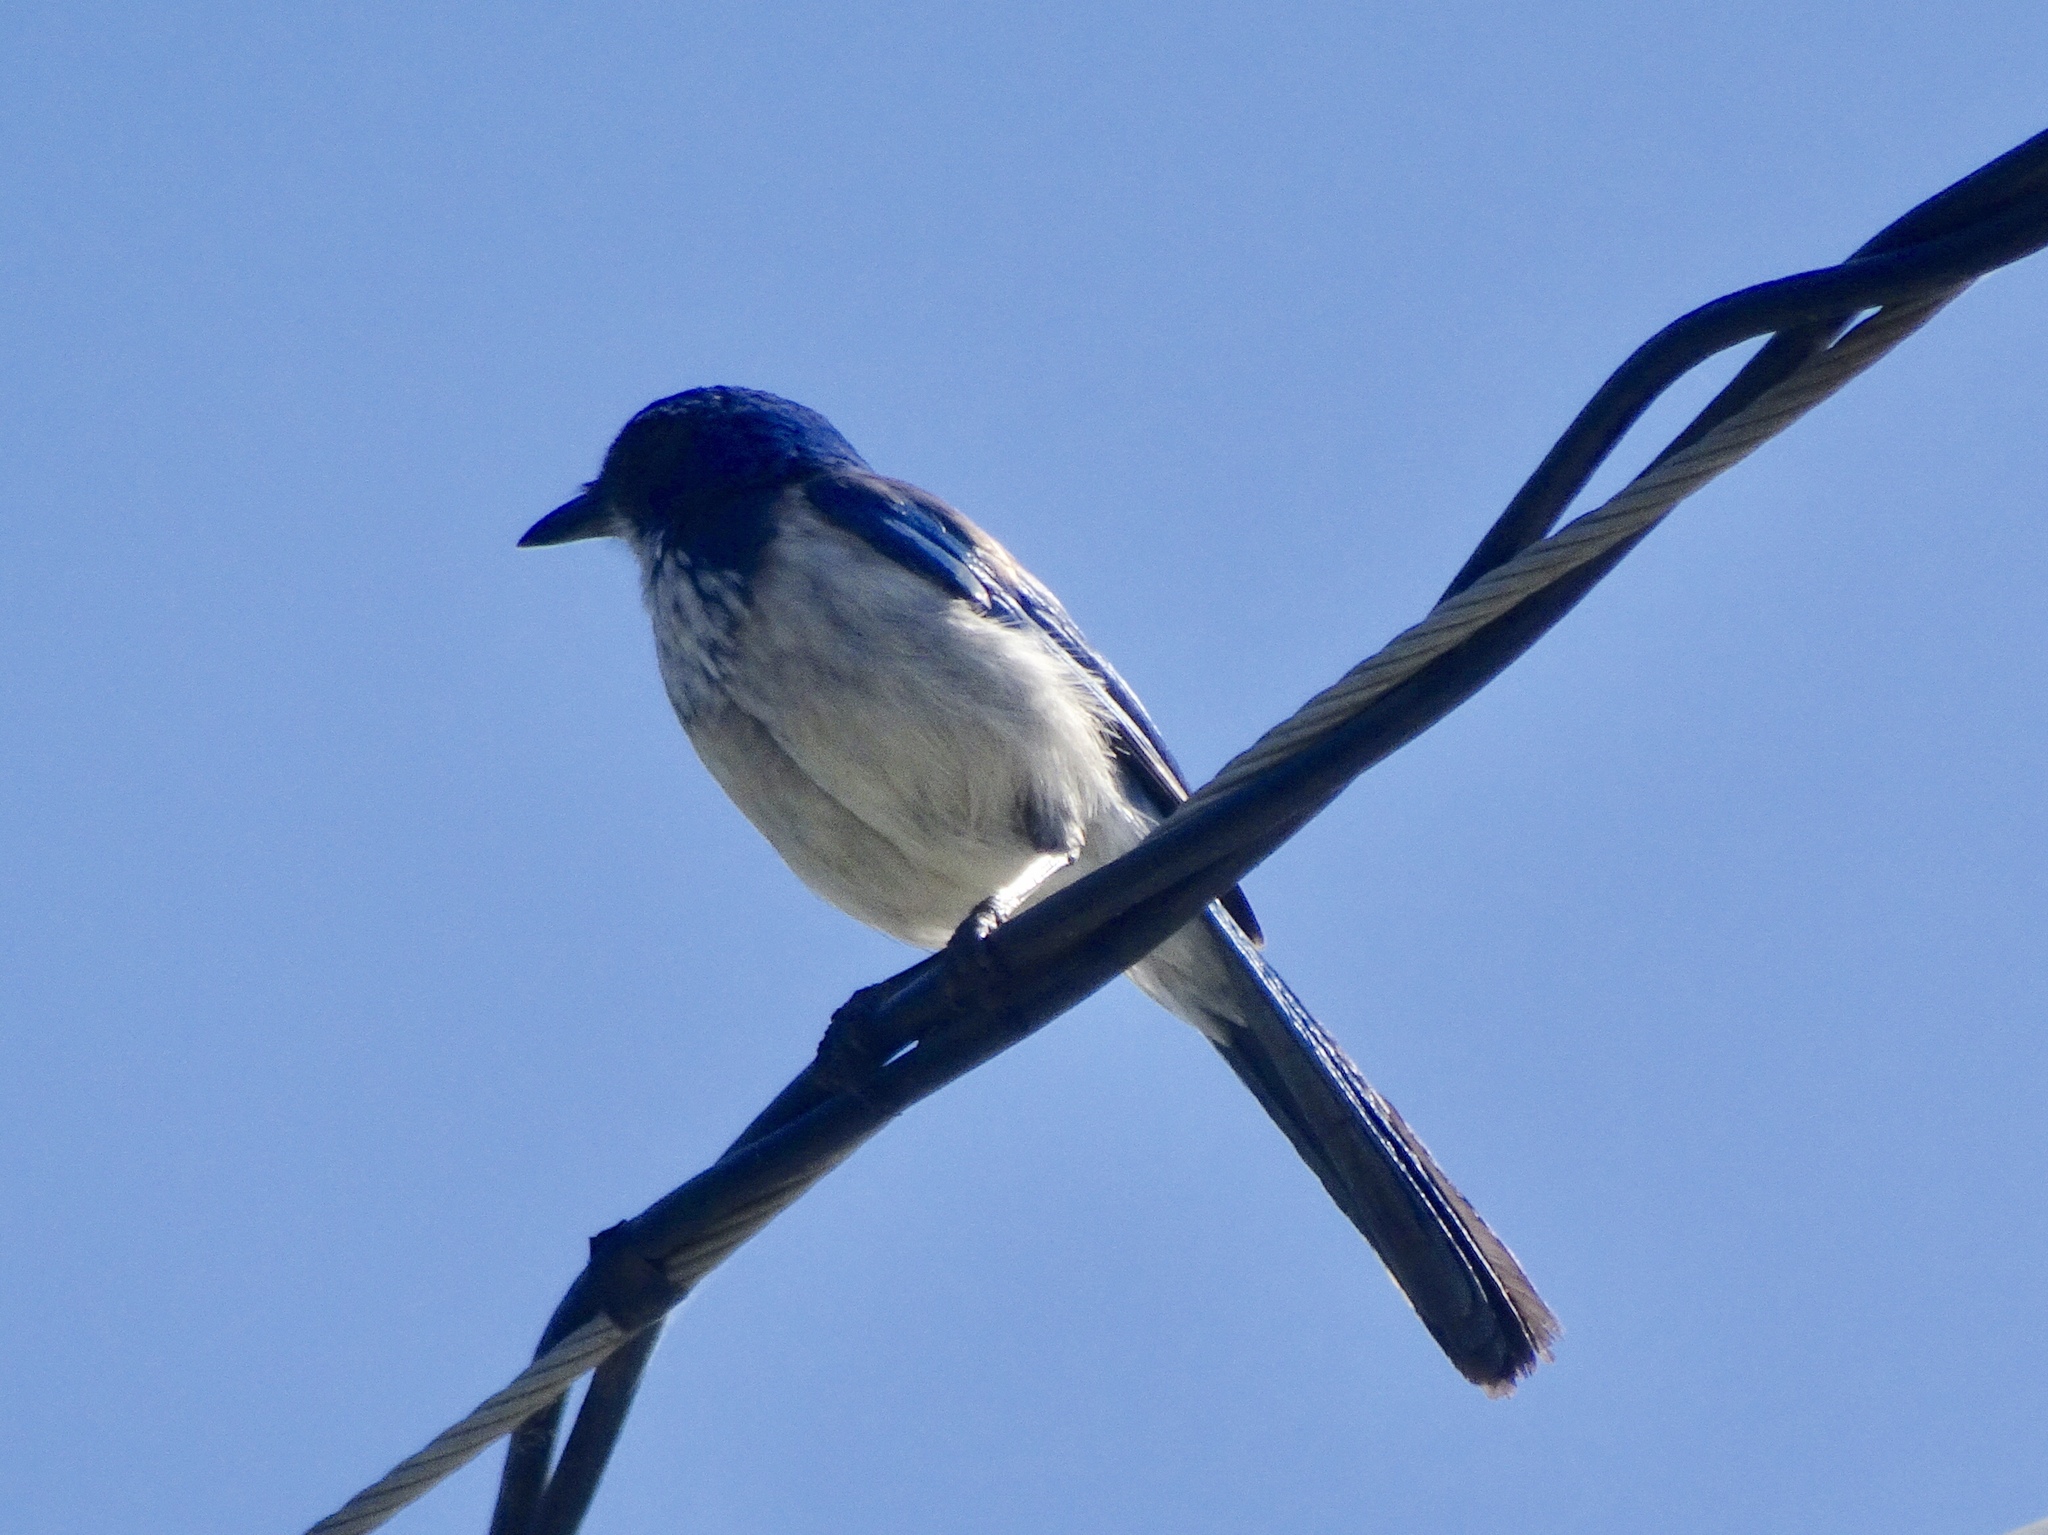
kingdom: Animalia
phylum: Chordata
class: Aves
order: Passeriformes
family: Corvidae
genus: Aphelocoma
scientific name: Aphelocoma californica
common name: California scrub-jay
